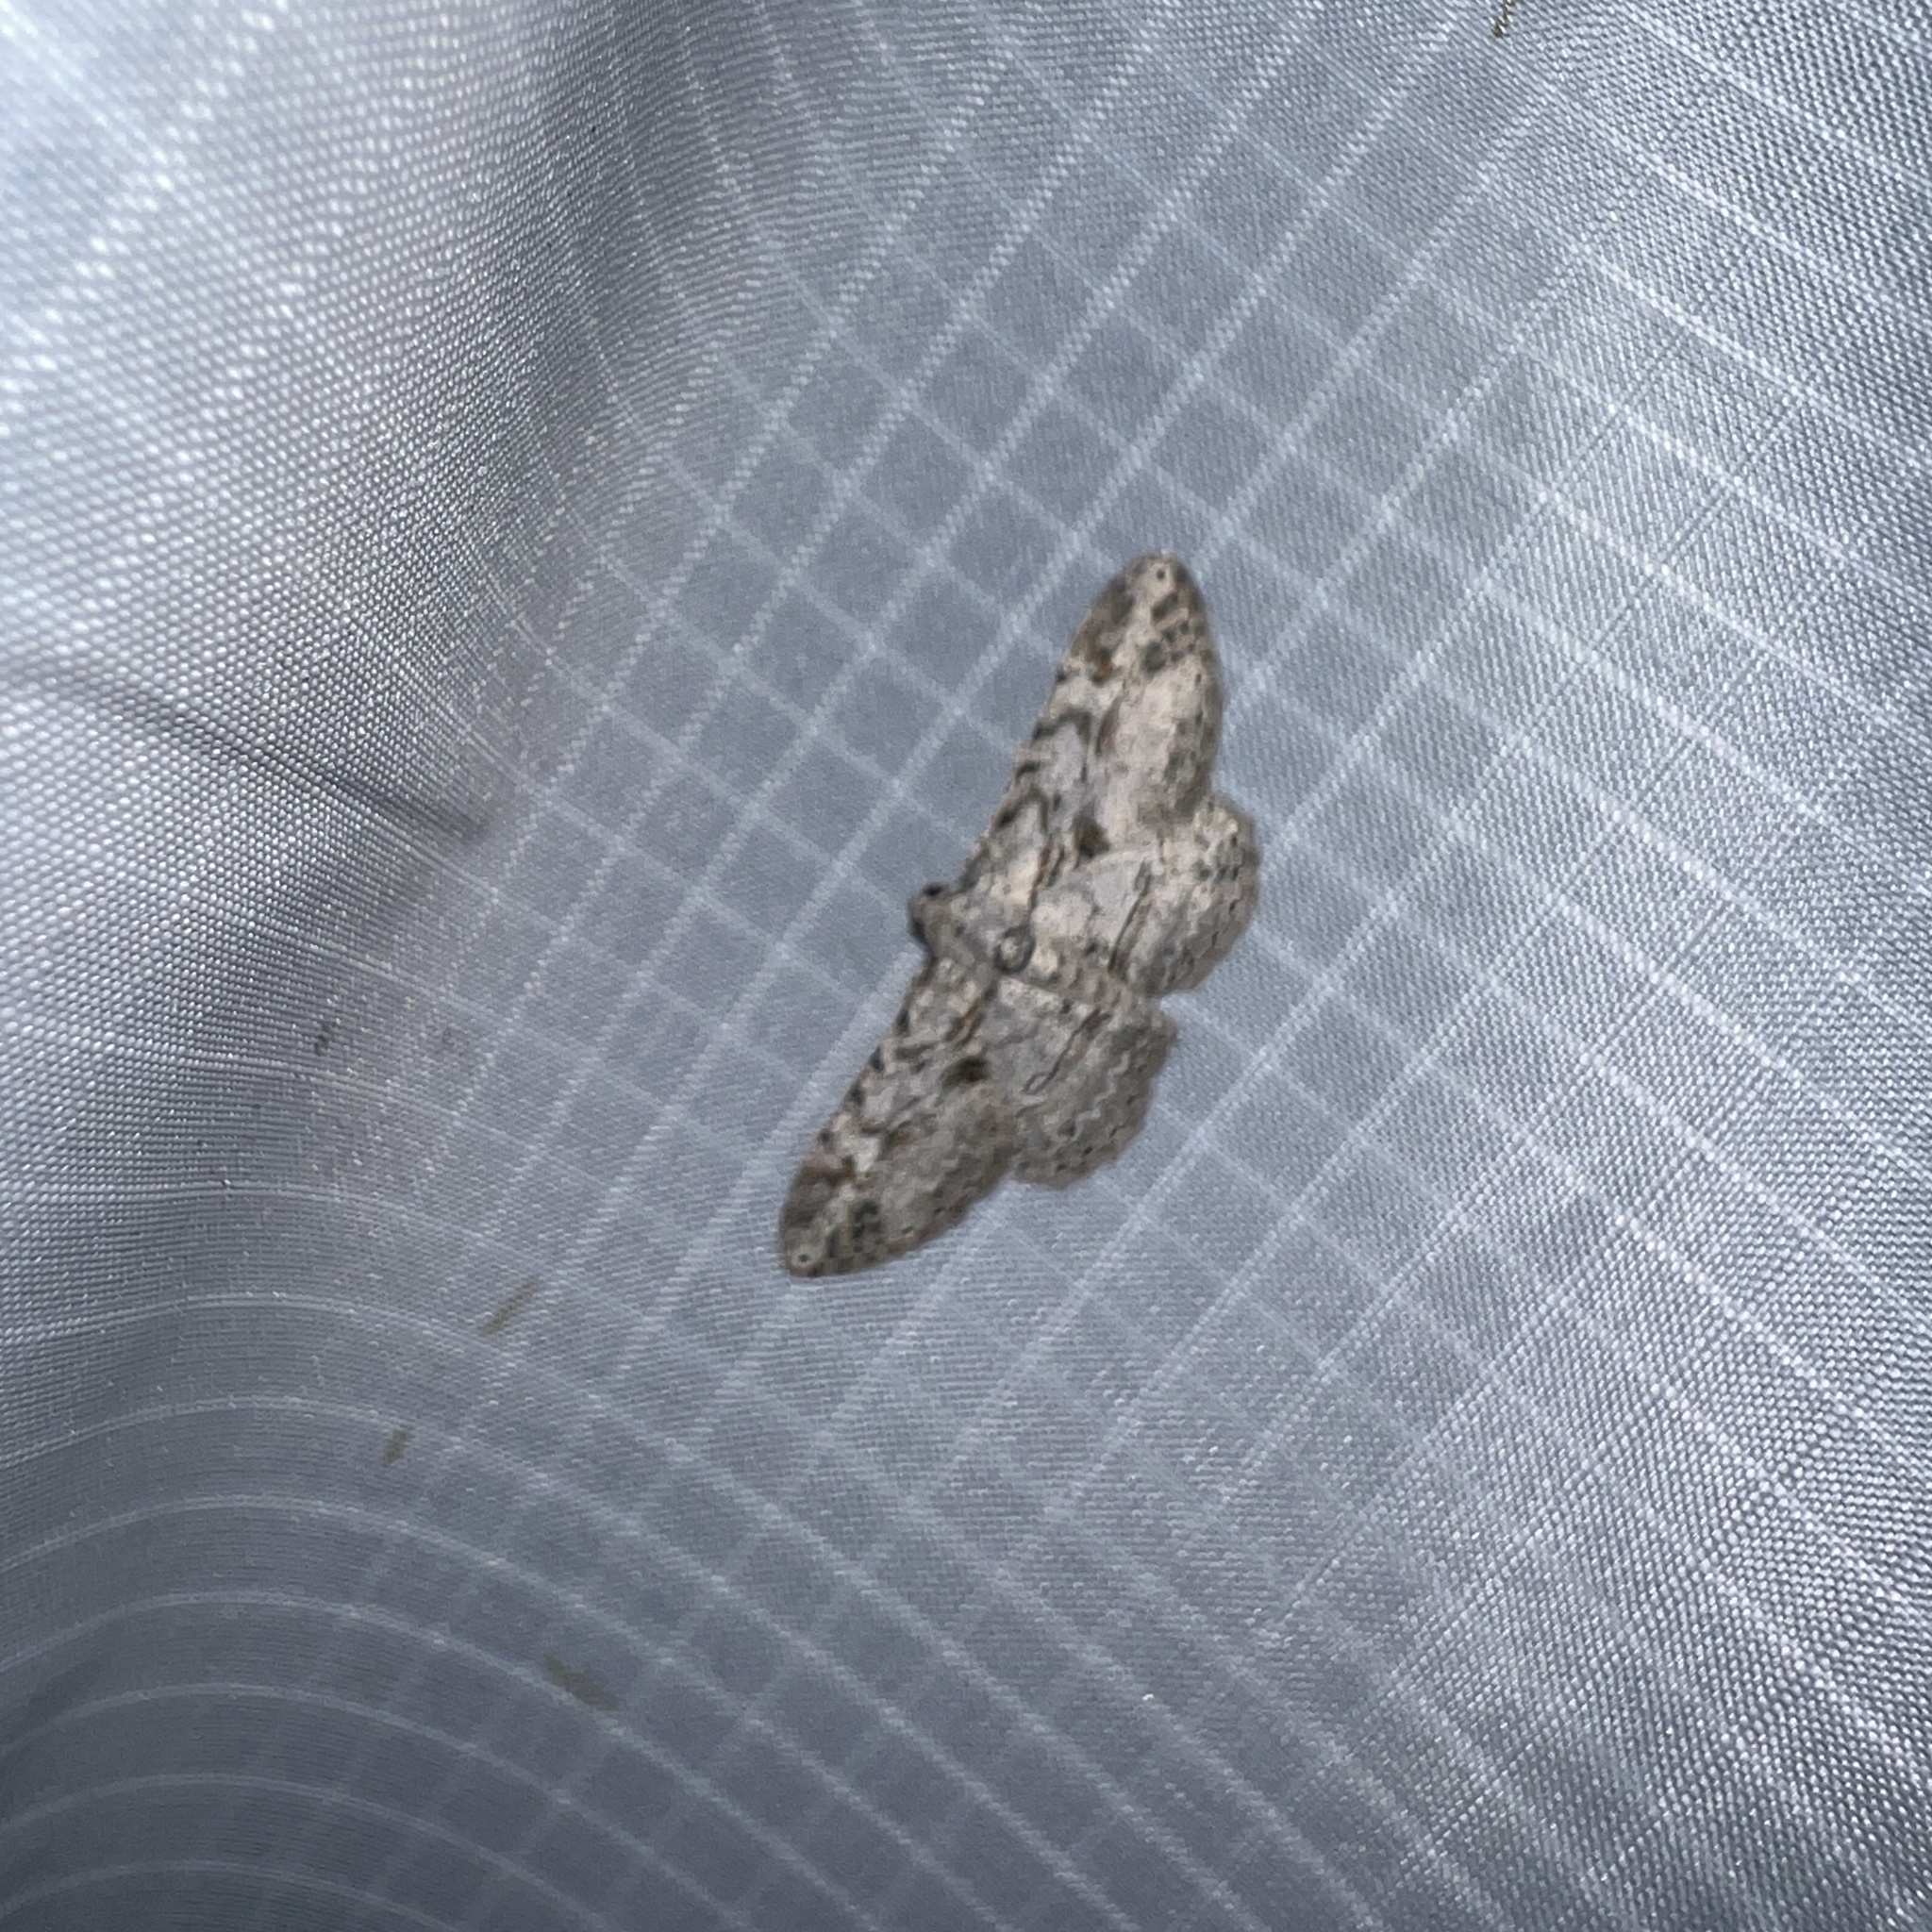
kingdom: Animalia
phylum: Arthropoda
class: Insecta
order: Lepidoptera
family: Geometridae
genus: Iridopsis
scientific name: Iridopsis fragilaria
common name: Moth
